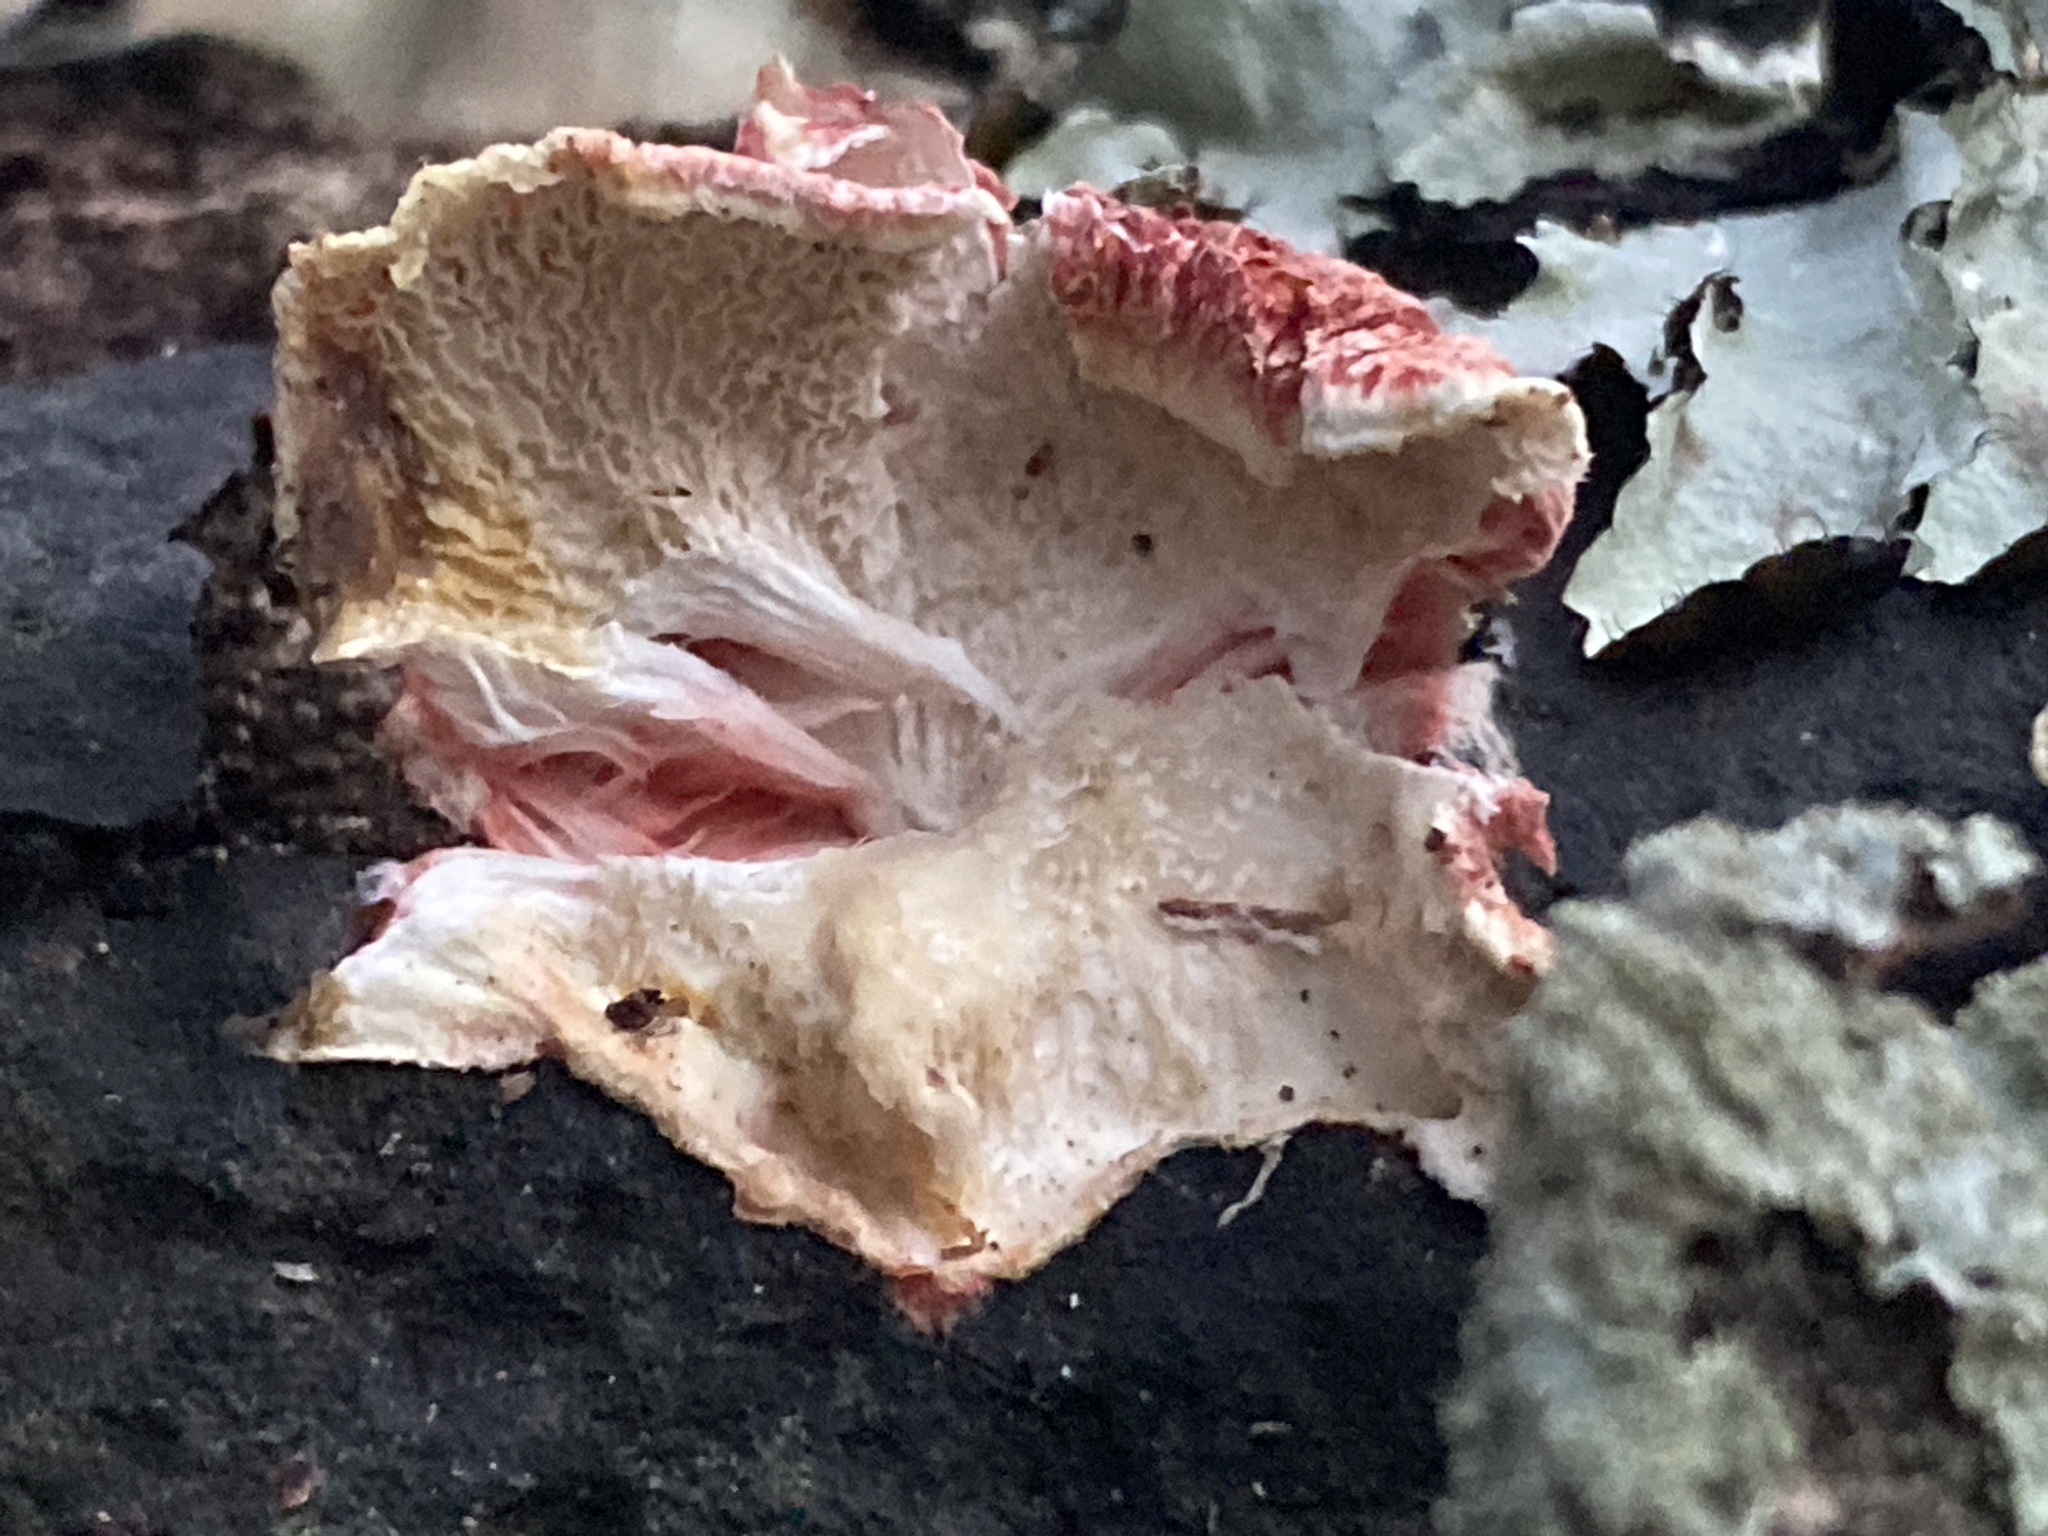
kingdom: Fungi
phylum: Basidiomycota
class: Agaricomycetes
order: Polyporales
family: Irpicaceae
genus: Byssomerulius
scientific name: Byssomerulius incarnatus
